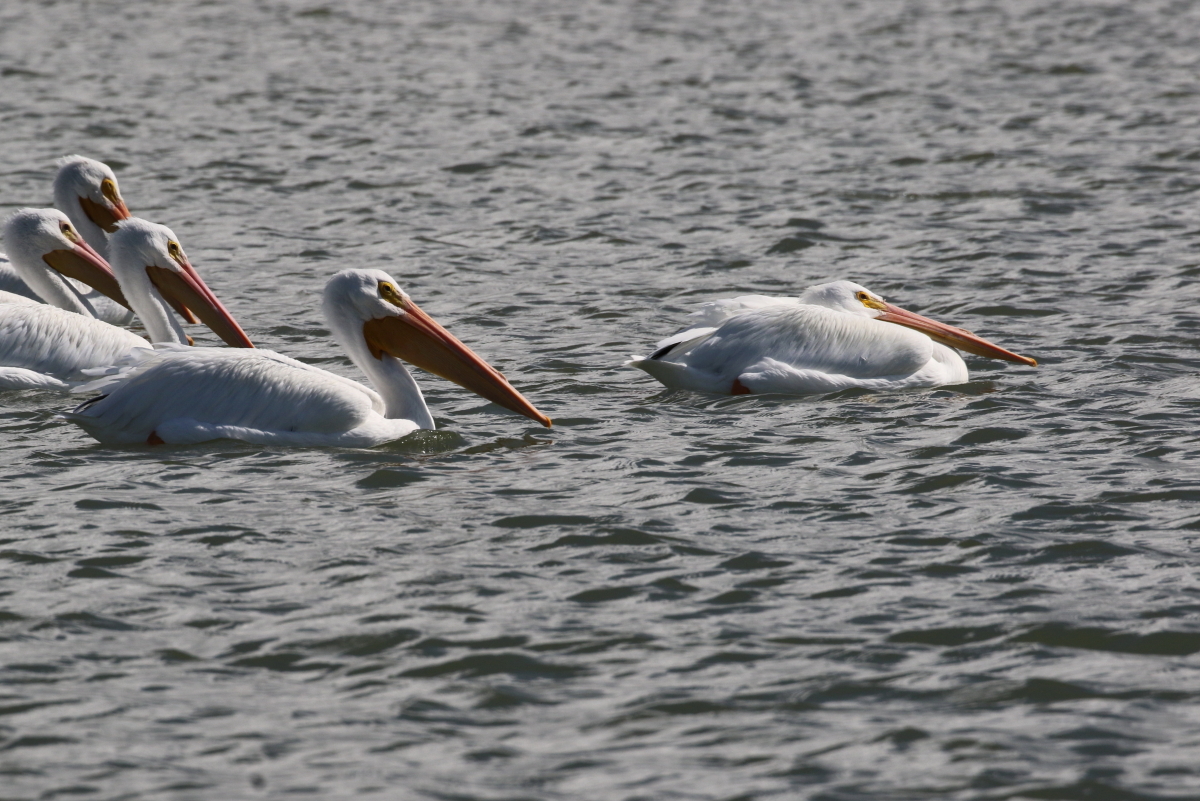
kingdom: Animalia
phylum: Chordata
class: Aves
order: Pelecaniformes
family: Pelecanidae
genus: Pelecanus
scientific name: Pelecanus erythrorhynchos
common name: American white pelican
